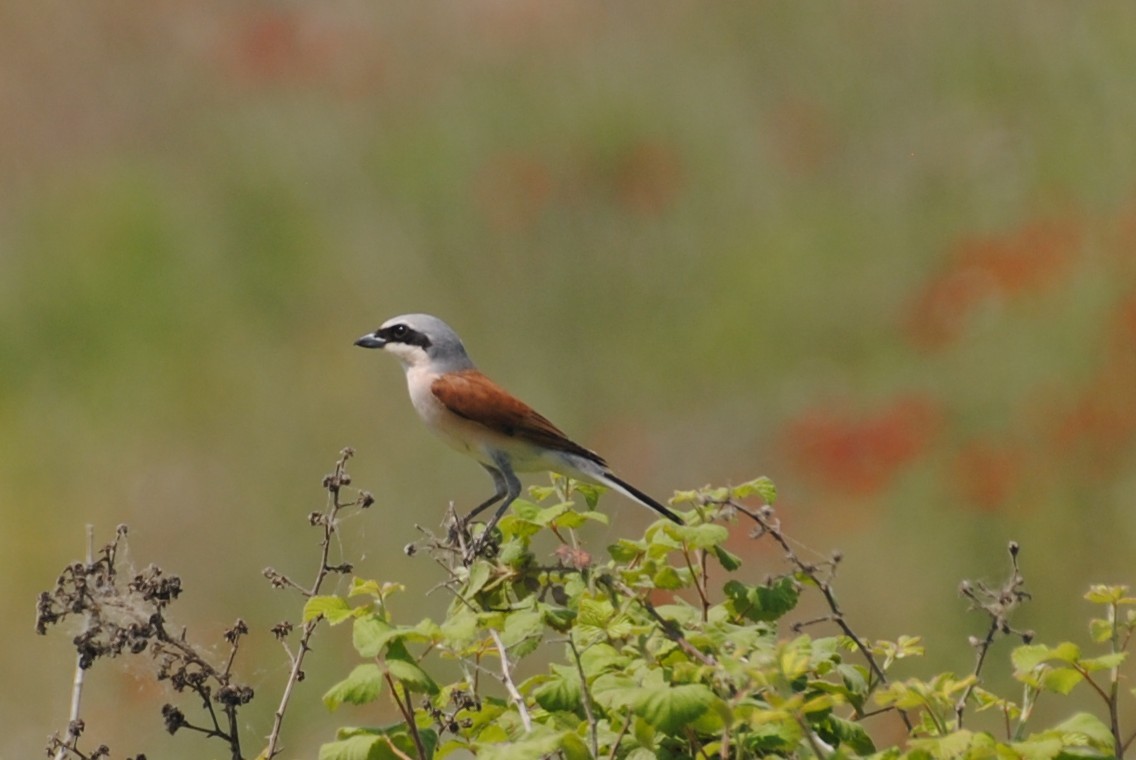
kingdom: Animalia
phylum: Chordata
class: Aves
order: Passeriformes
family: Laniidae
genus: Lanius
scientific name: Lanius collurio
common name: Red-backed shrike
